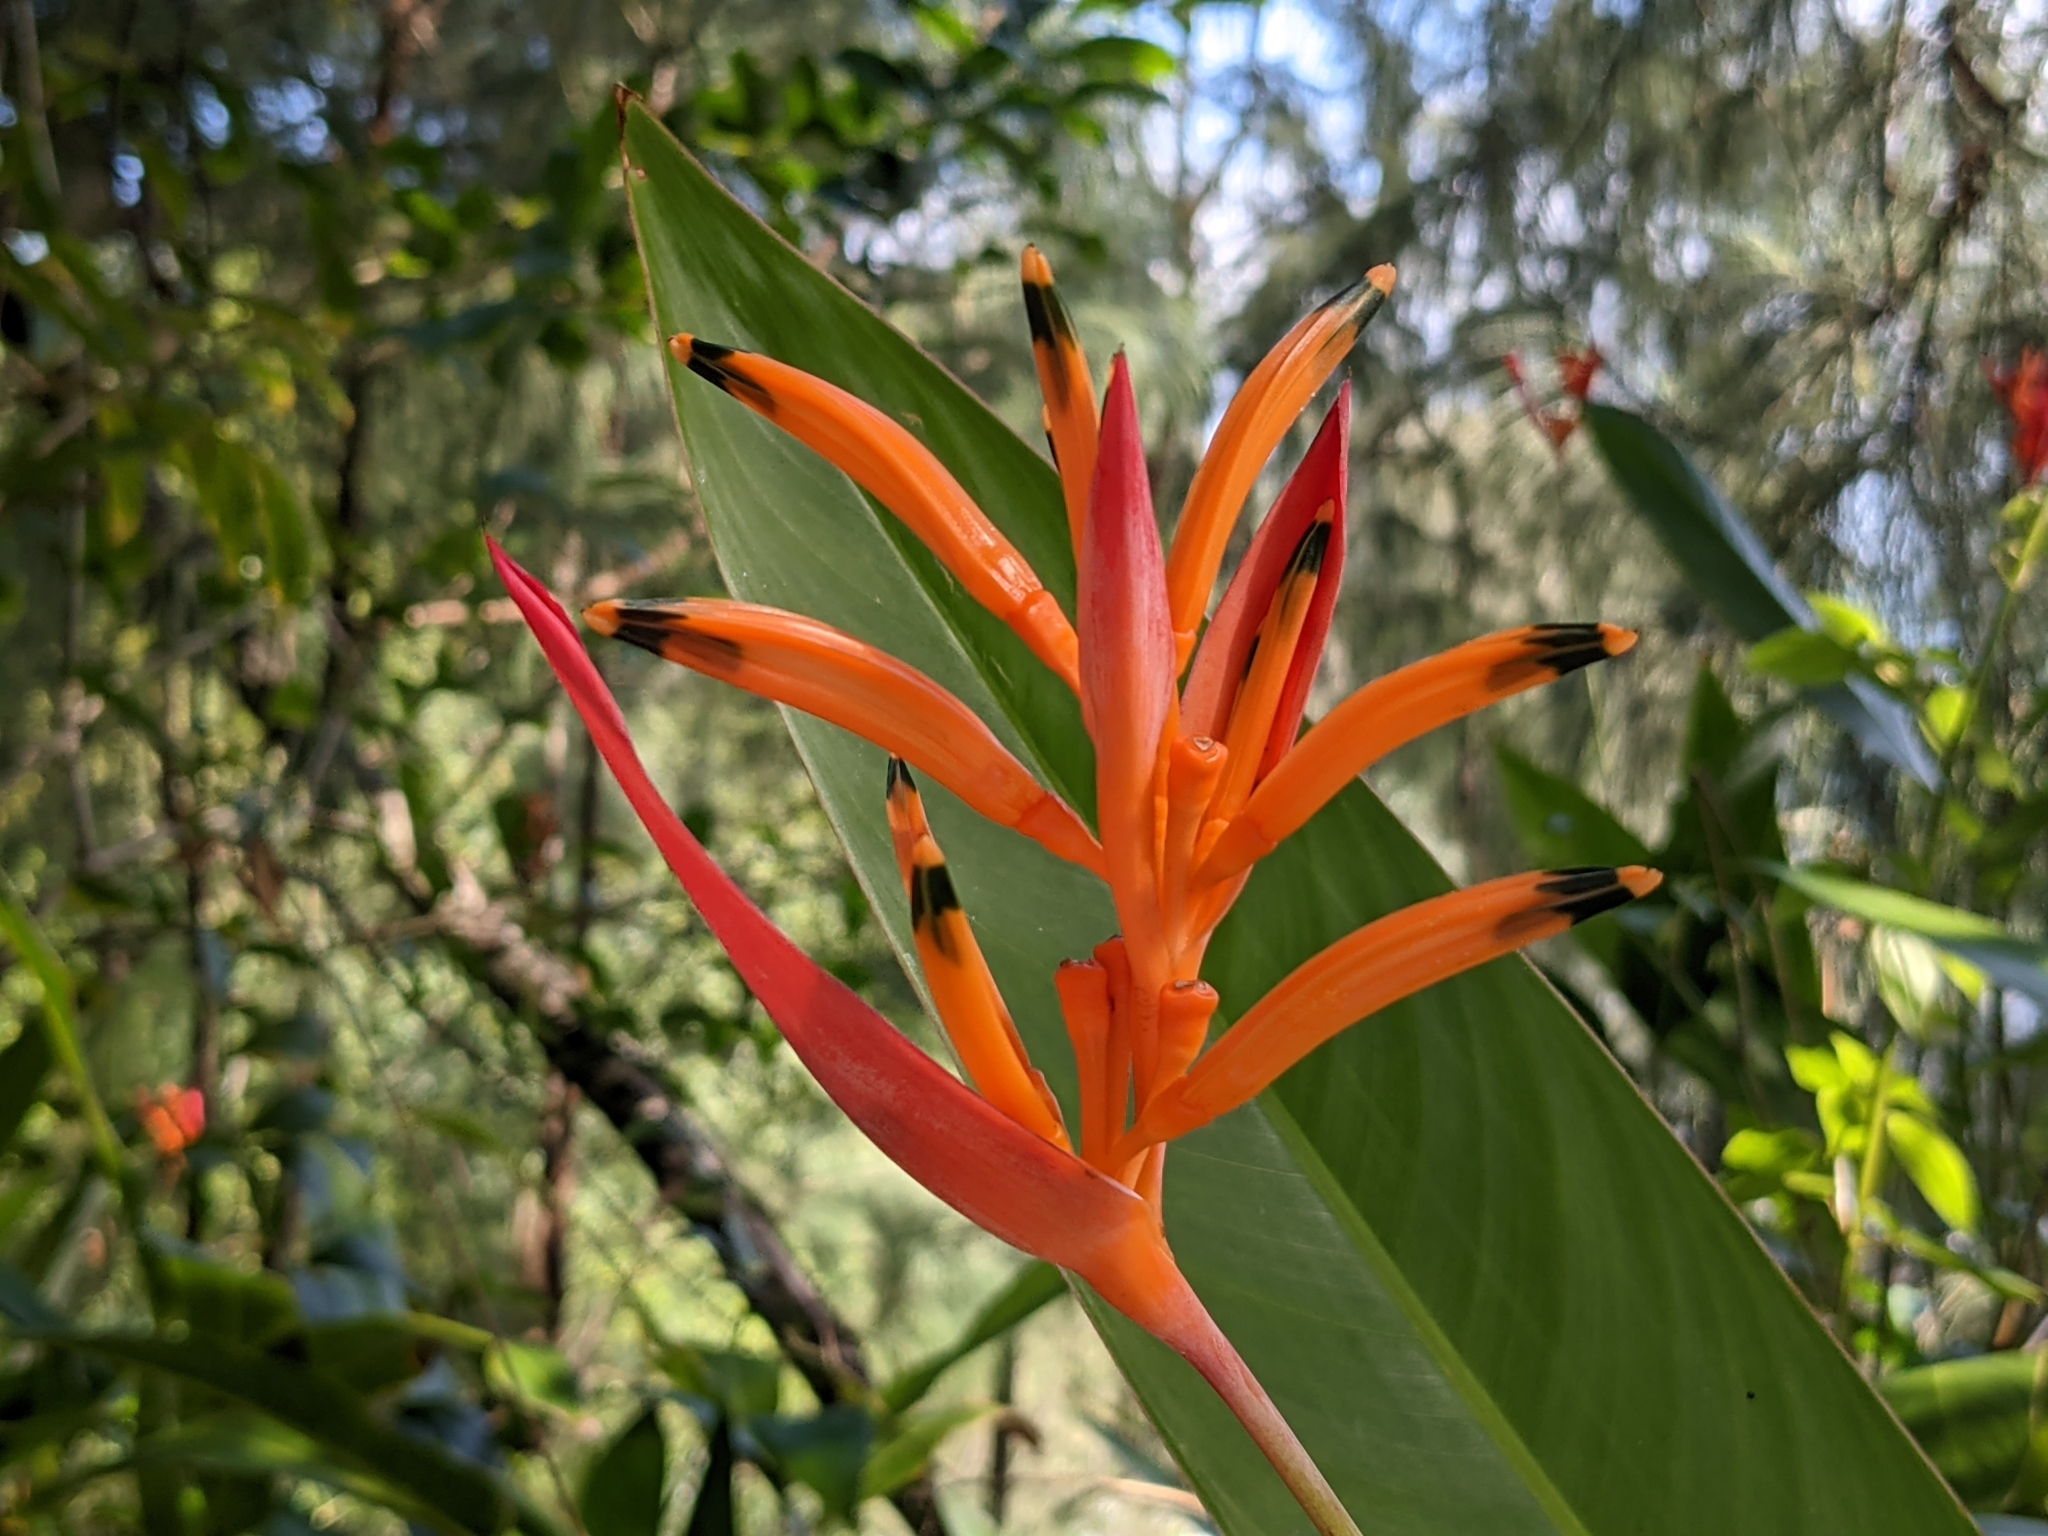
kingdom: Plantae
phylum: Tracheophyta
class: Liliopsida
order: Zingiberales
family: Heliconiaceae
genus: Heliconia
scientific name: Heliconia psittacorum
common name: Parrot's-flower
